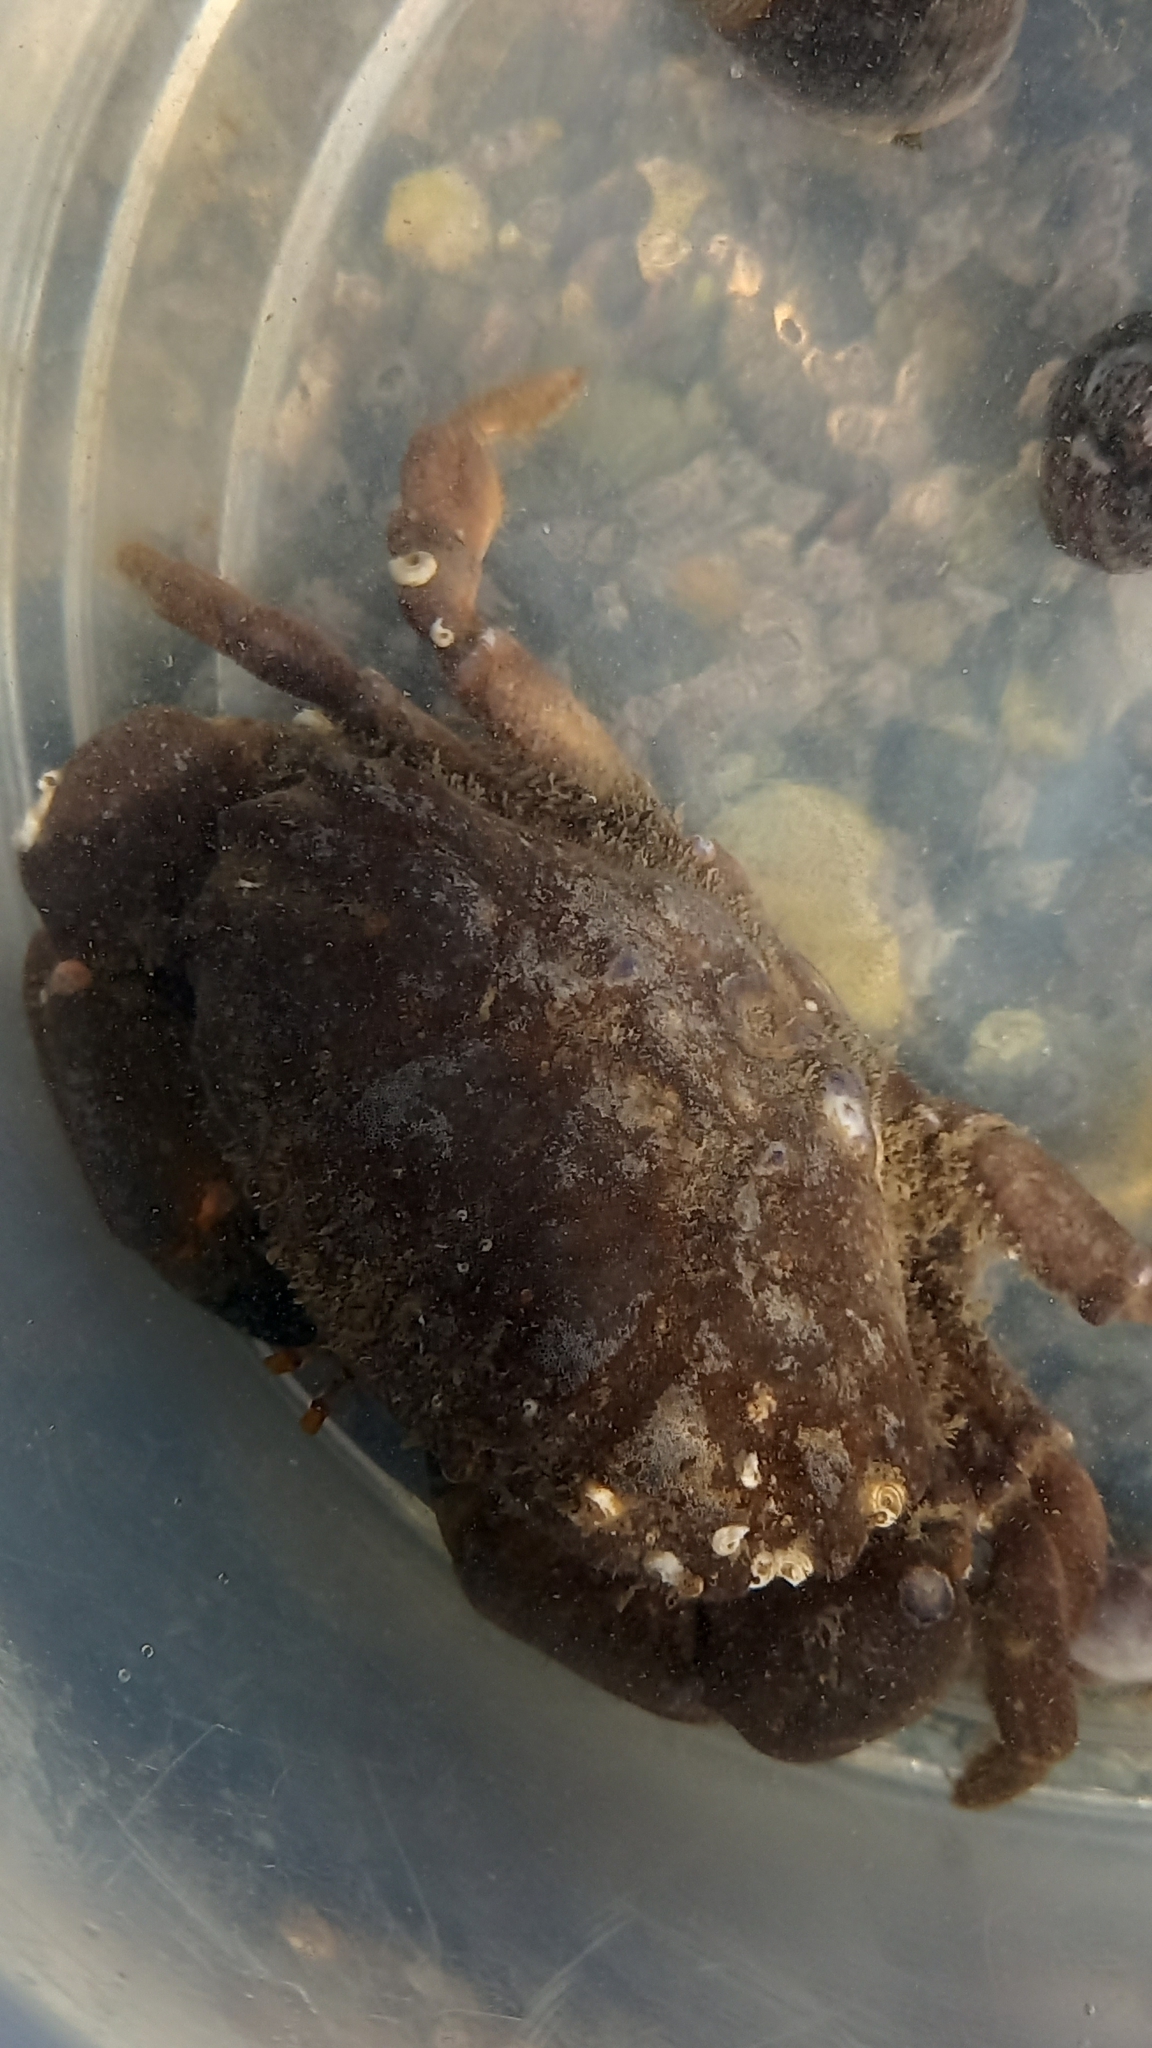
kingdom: Animalia
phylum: Arthropoda
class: Malacostraca
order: Decapoda
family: Xanthidae
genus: Xantho
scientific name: Xantho hydrophilus
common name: Montagu's crab
